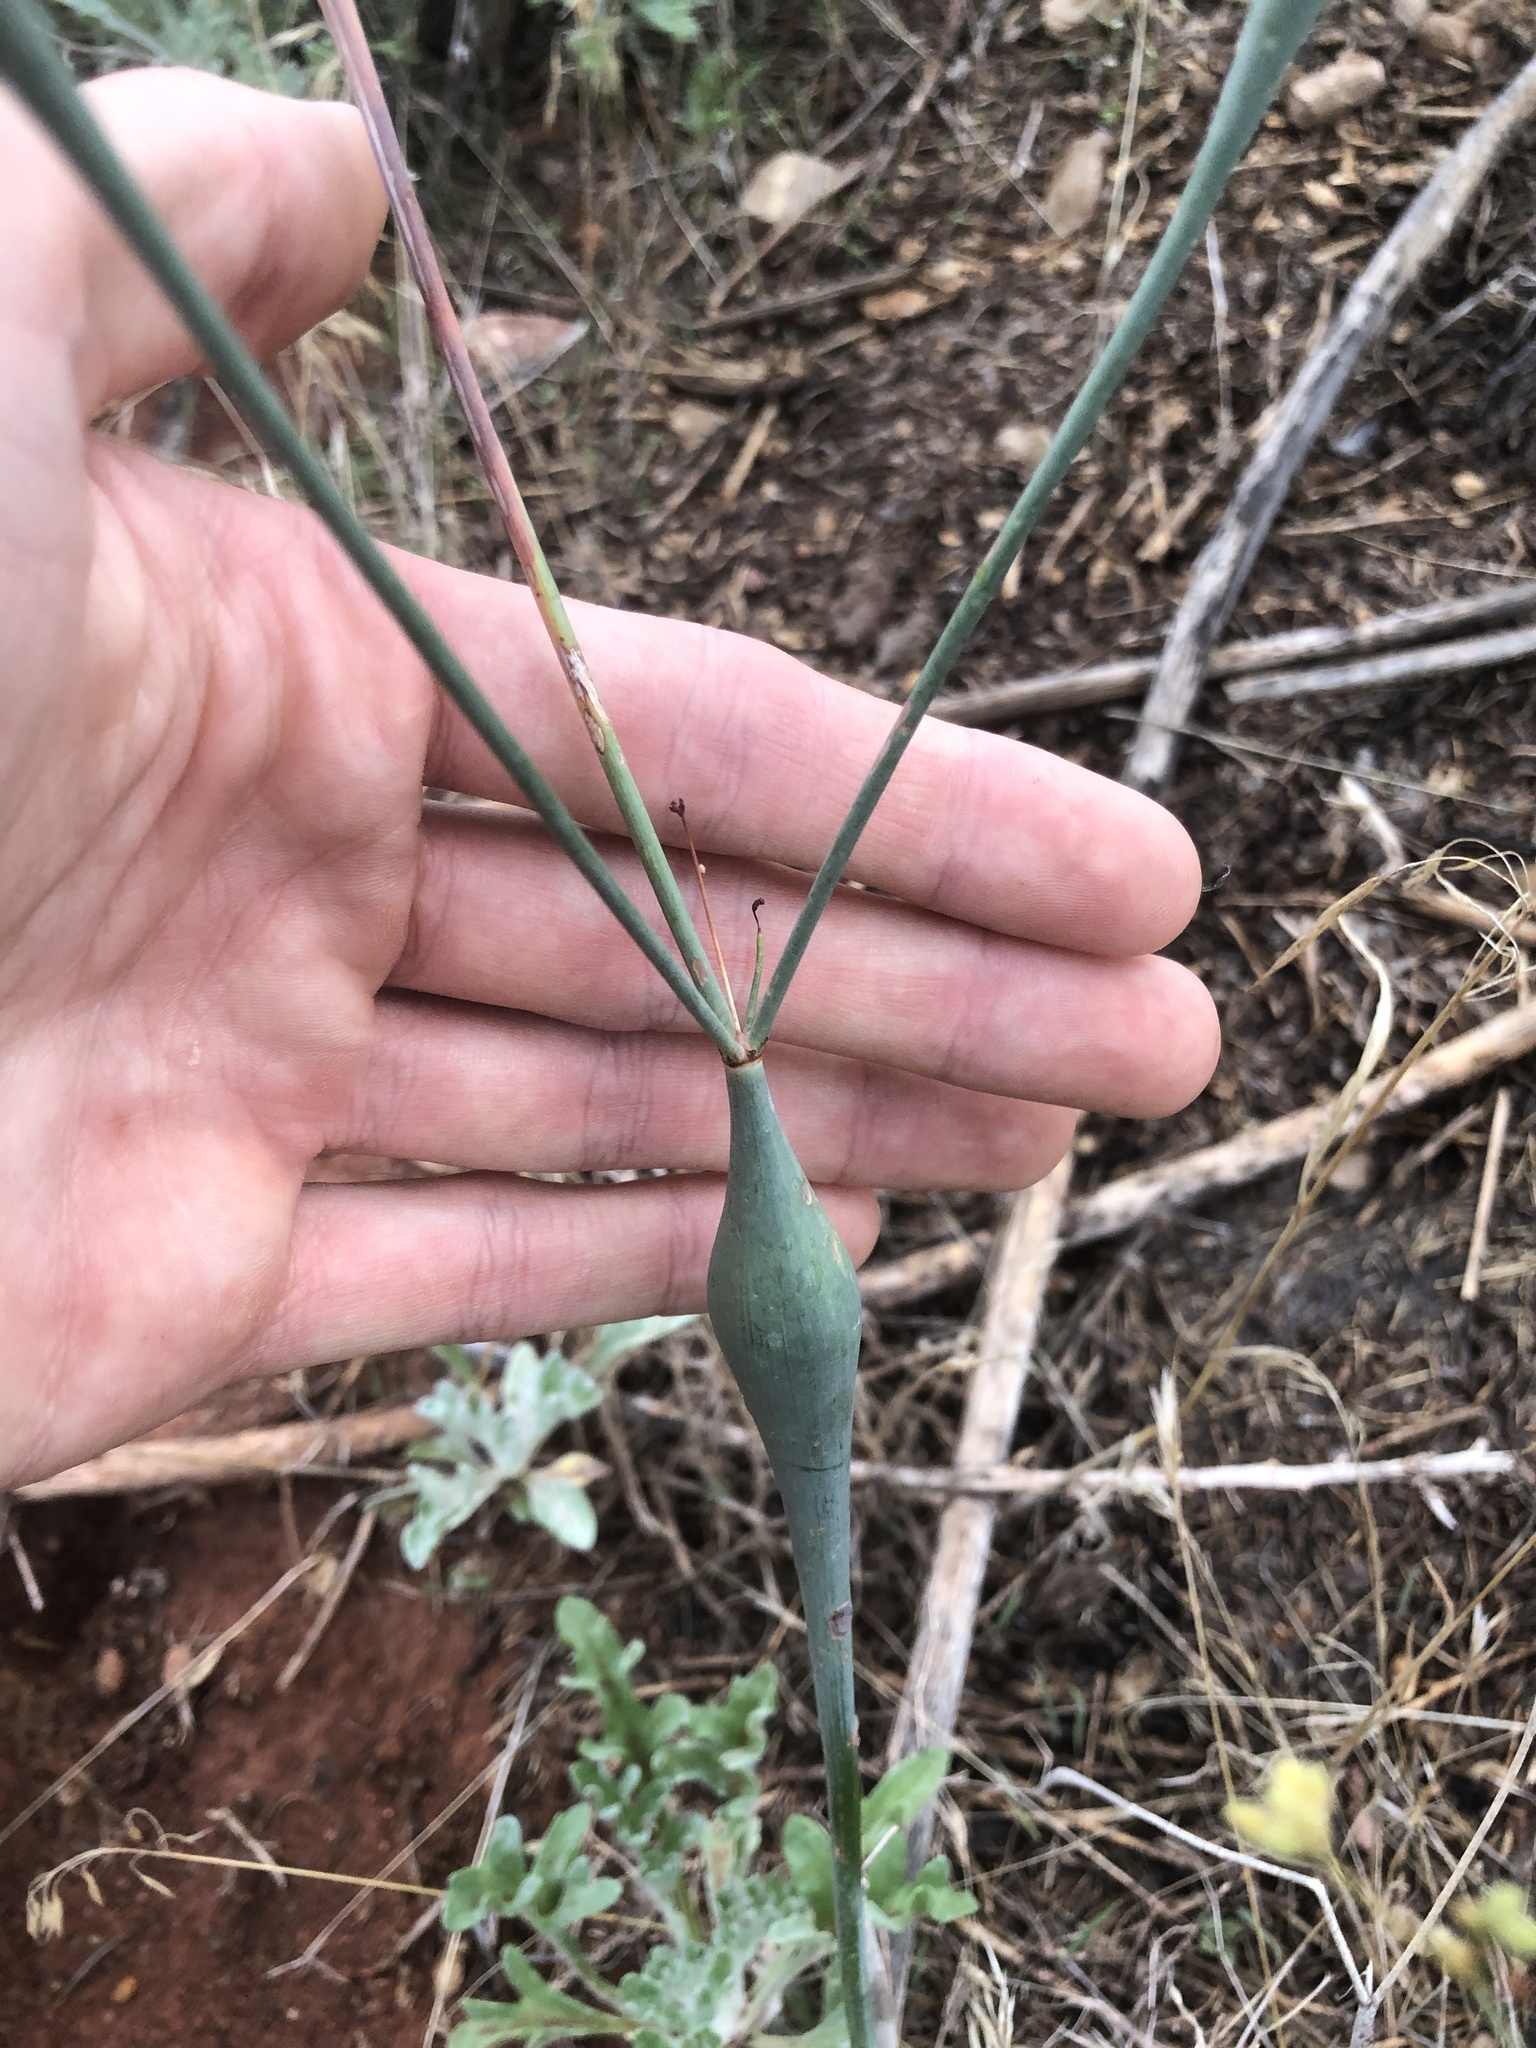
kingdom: Plantae
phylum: Tracheophyta
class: Magnoliopsida
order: Caryophyllales
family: Polygonaceae
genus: Eriogonum
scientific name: Eriogonum inflatum
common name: Desert trumpet
